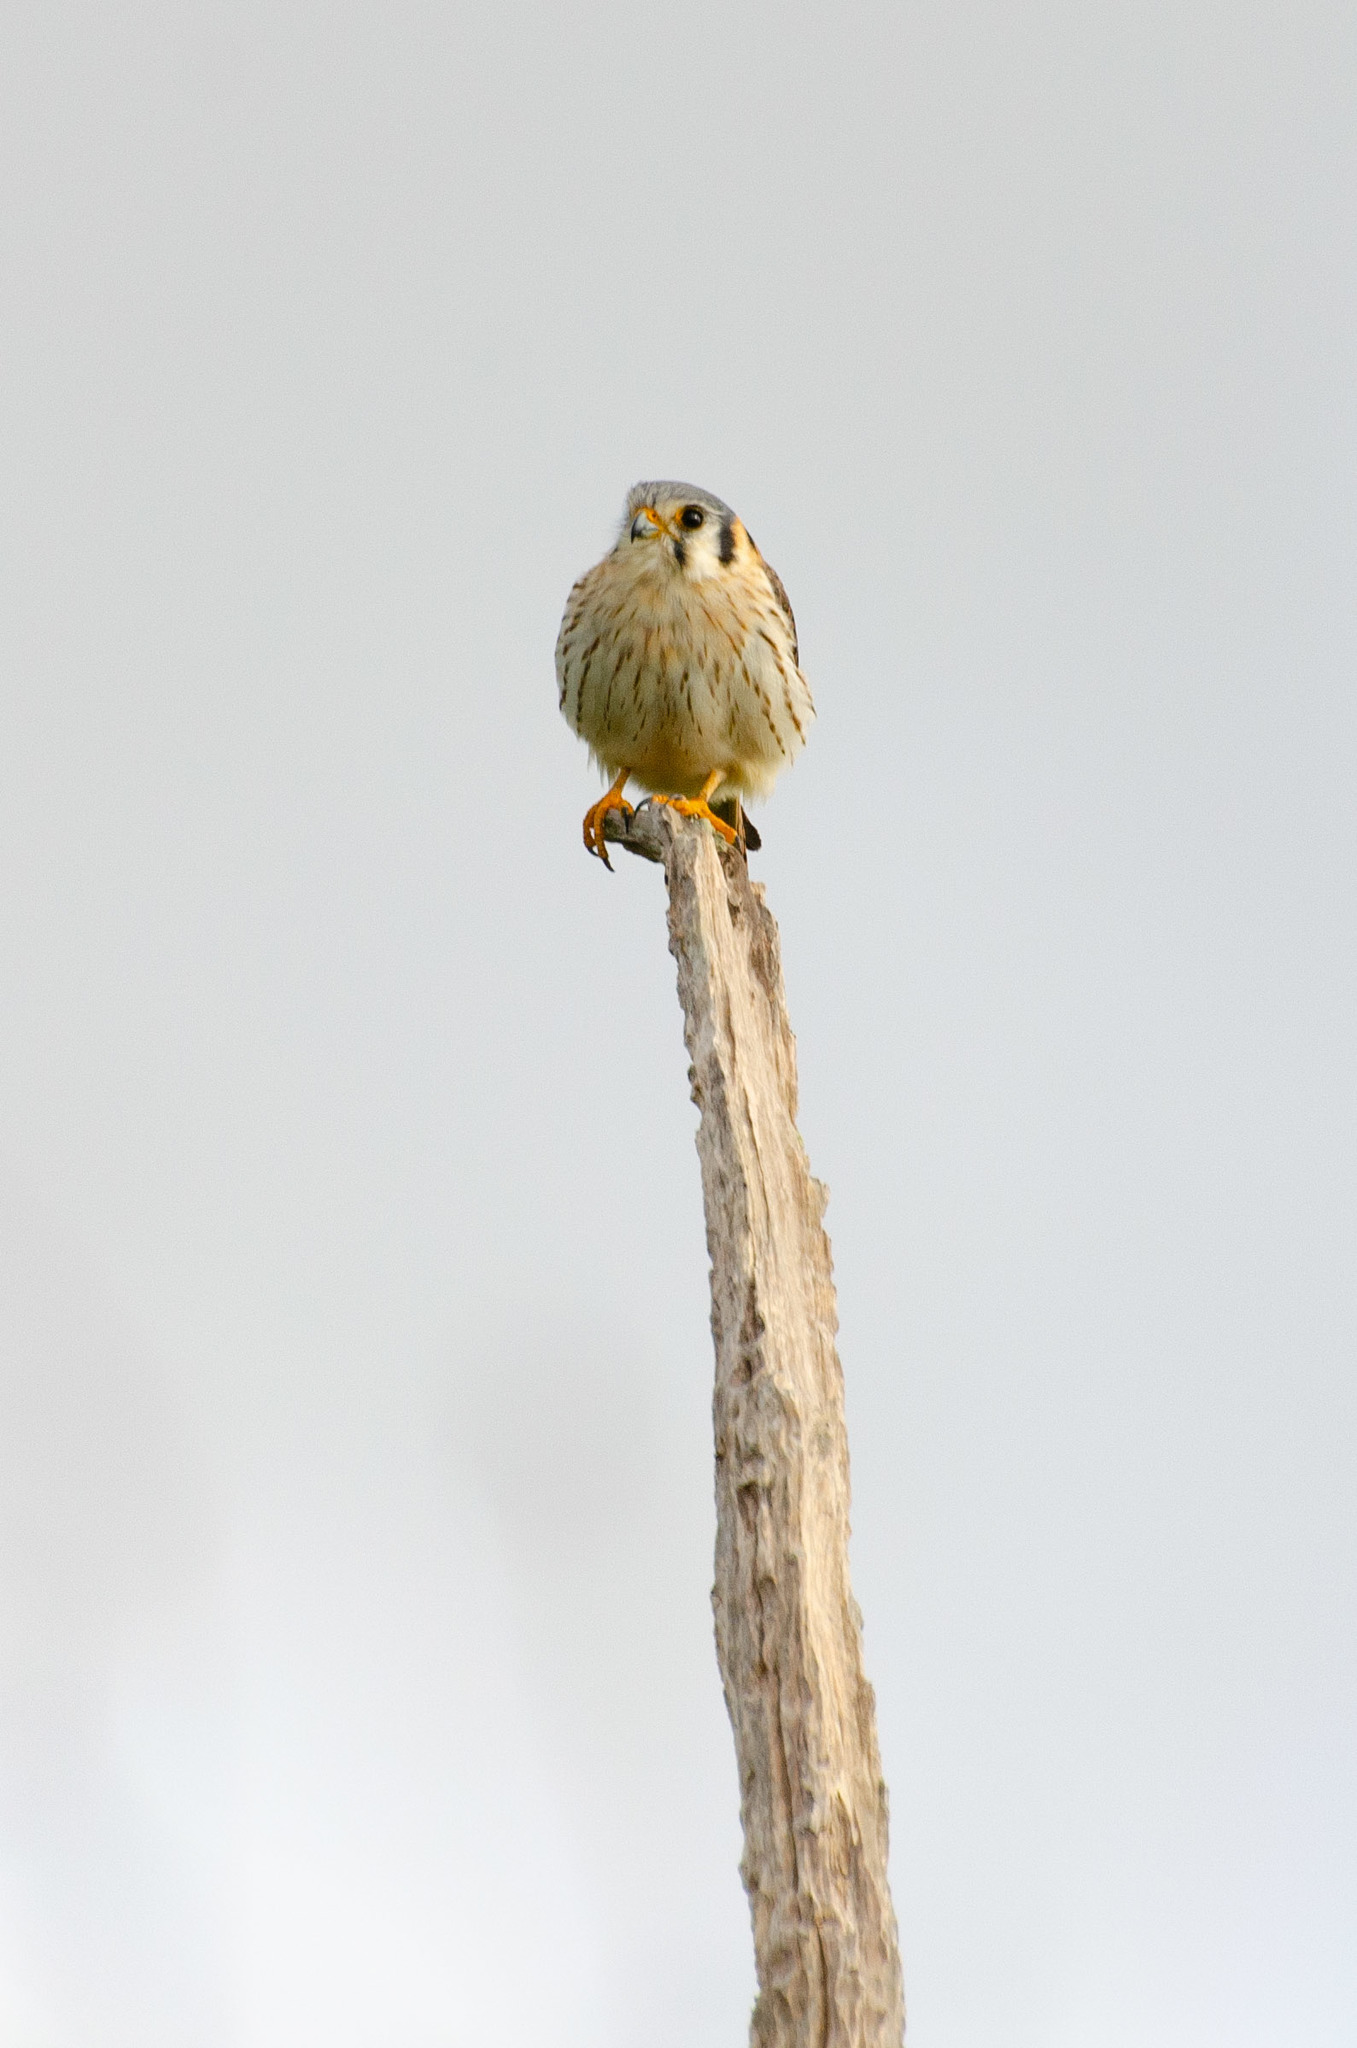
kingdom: Animalia
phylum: Chordata
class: Aves
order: Falconiformes
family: Falconidae
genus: Falco
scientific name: Falco sparverius
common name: American kestrel
